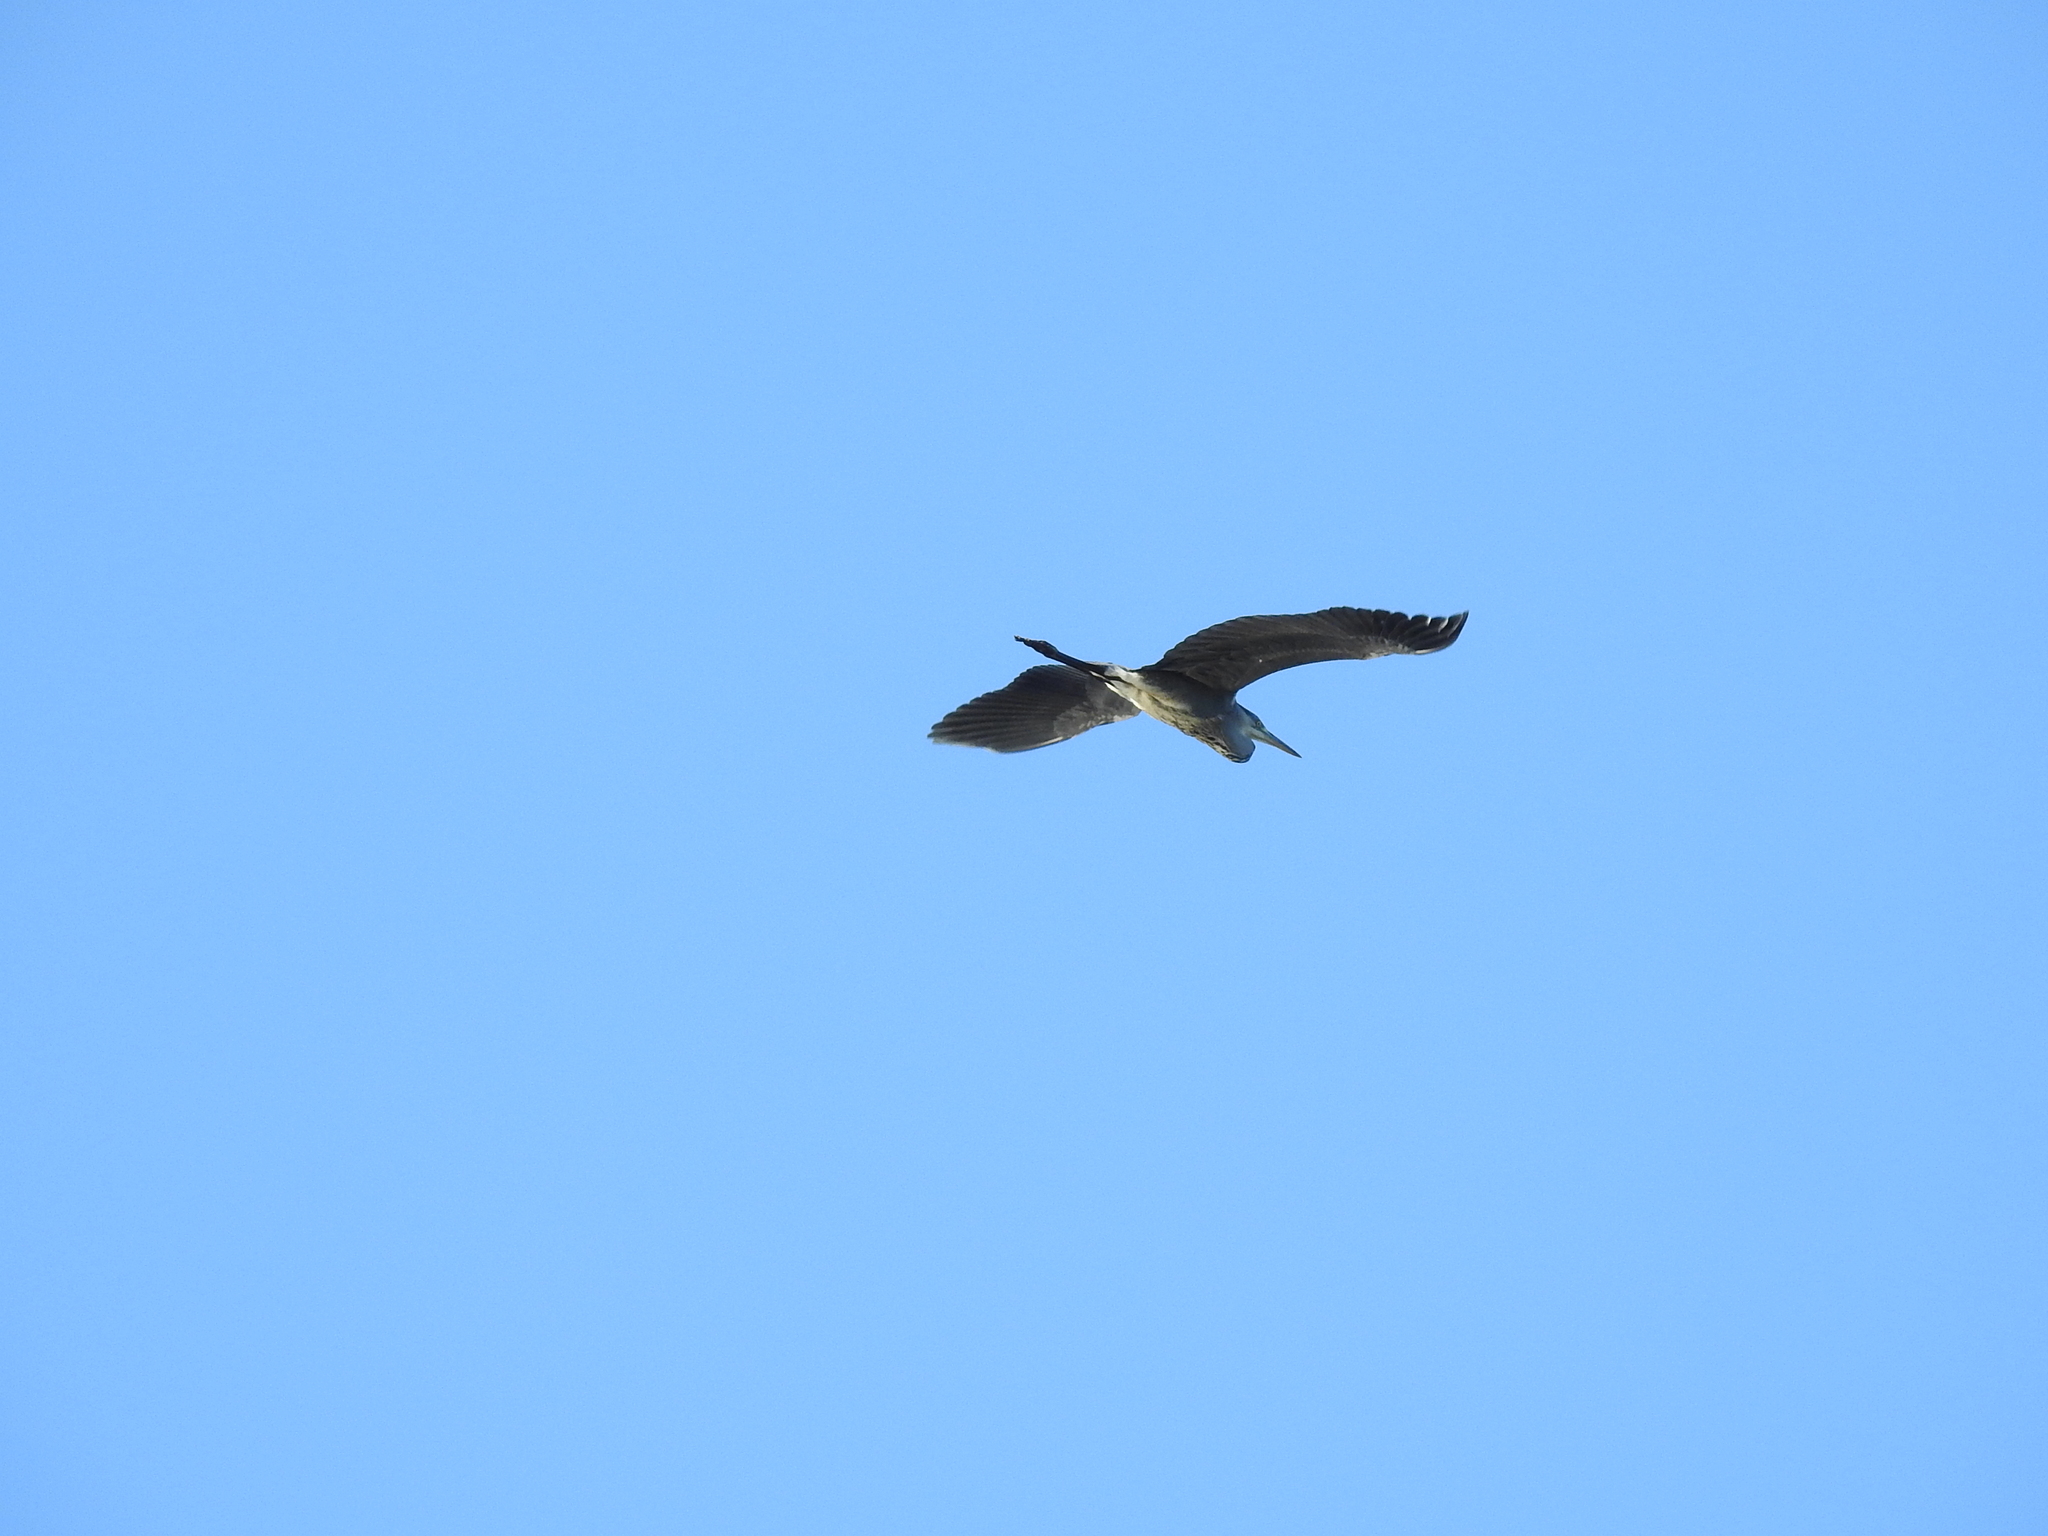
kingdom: Animalia
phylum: Chordata
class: Aves
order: Pelecaniformes
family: Ardeidae
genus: Ardea
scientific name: Ardea cinerea
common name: Grey heron
